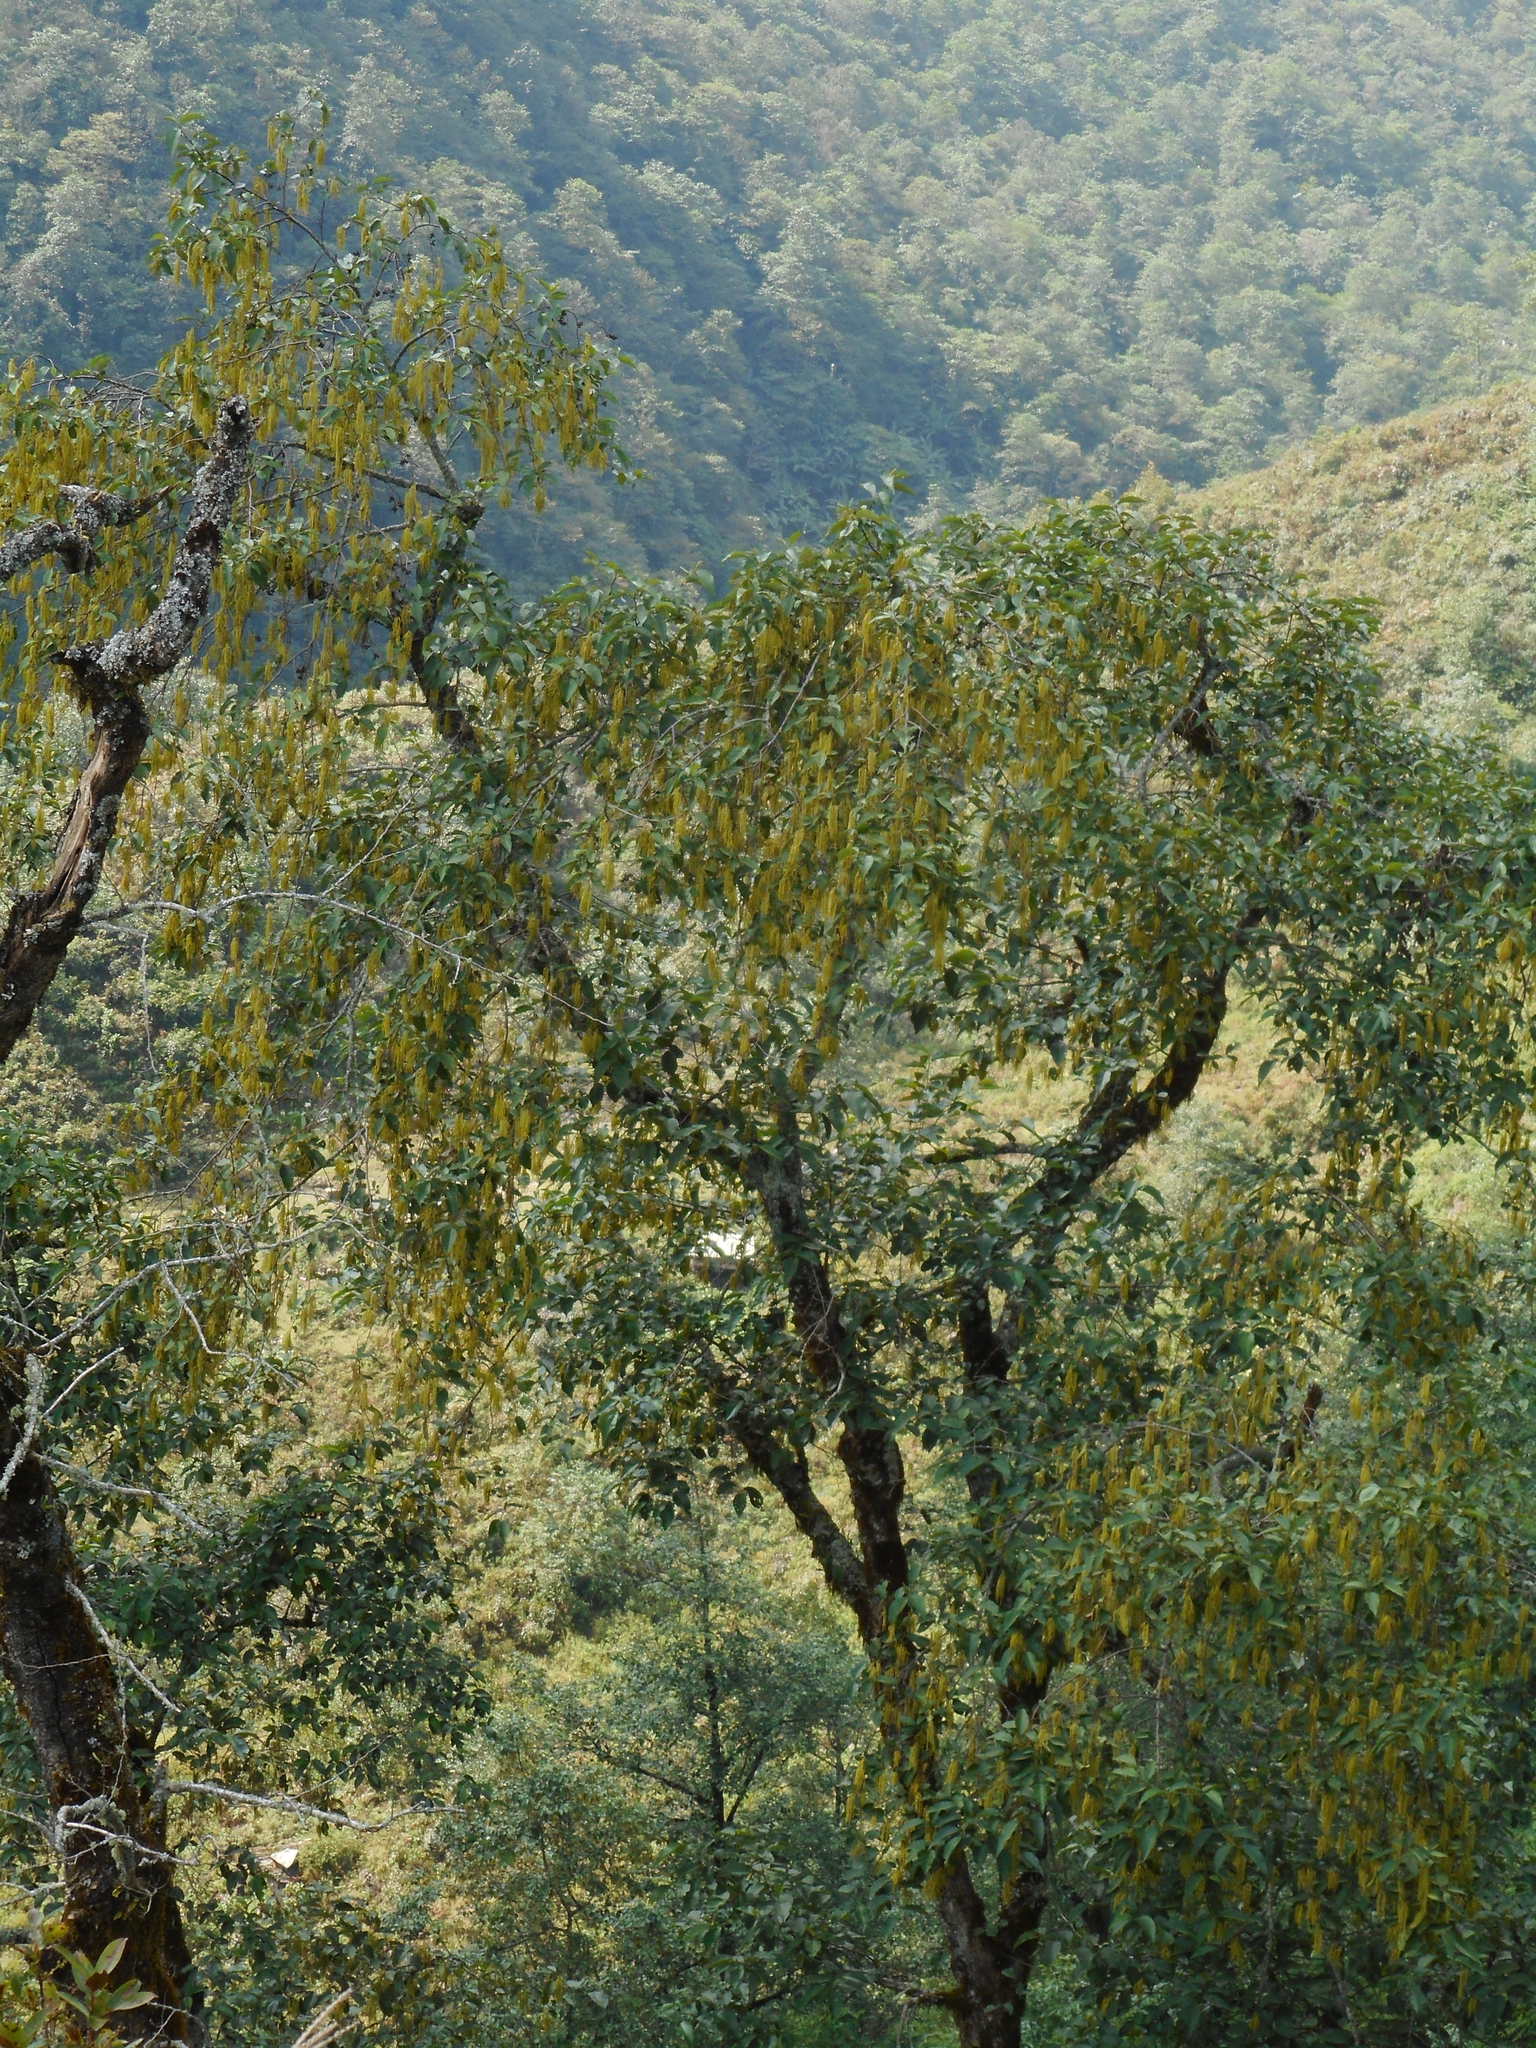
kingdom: Plantae
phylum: Tracheophyta
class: Magnoliopsida
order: Fagales
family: Betulaceae
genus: Alnus
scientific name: Alnus nepalensis
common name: Nepal alder
